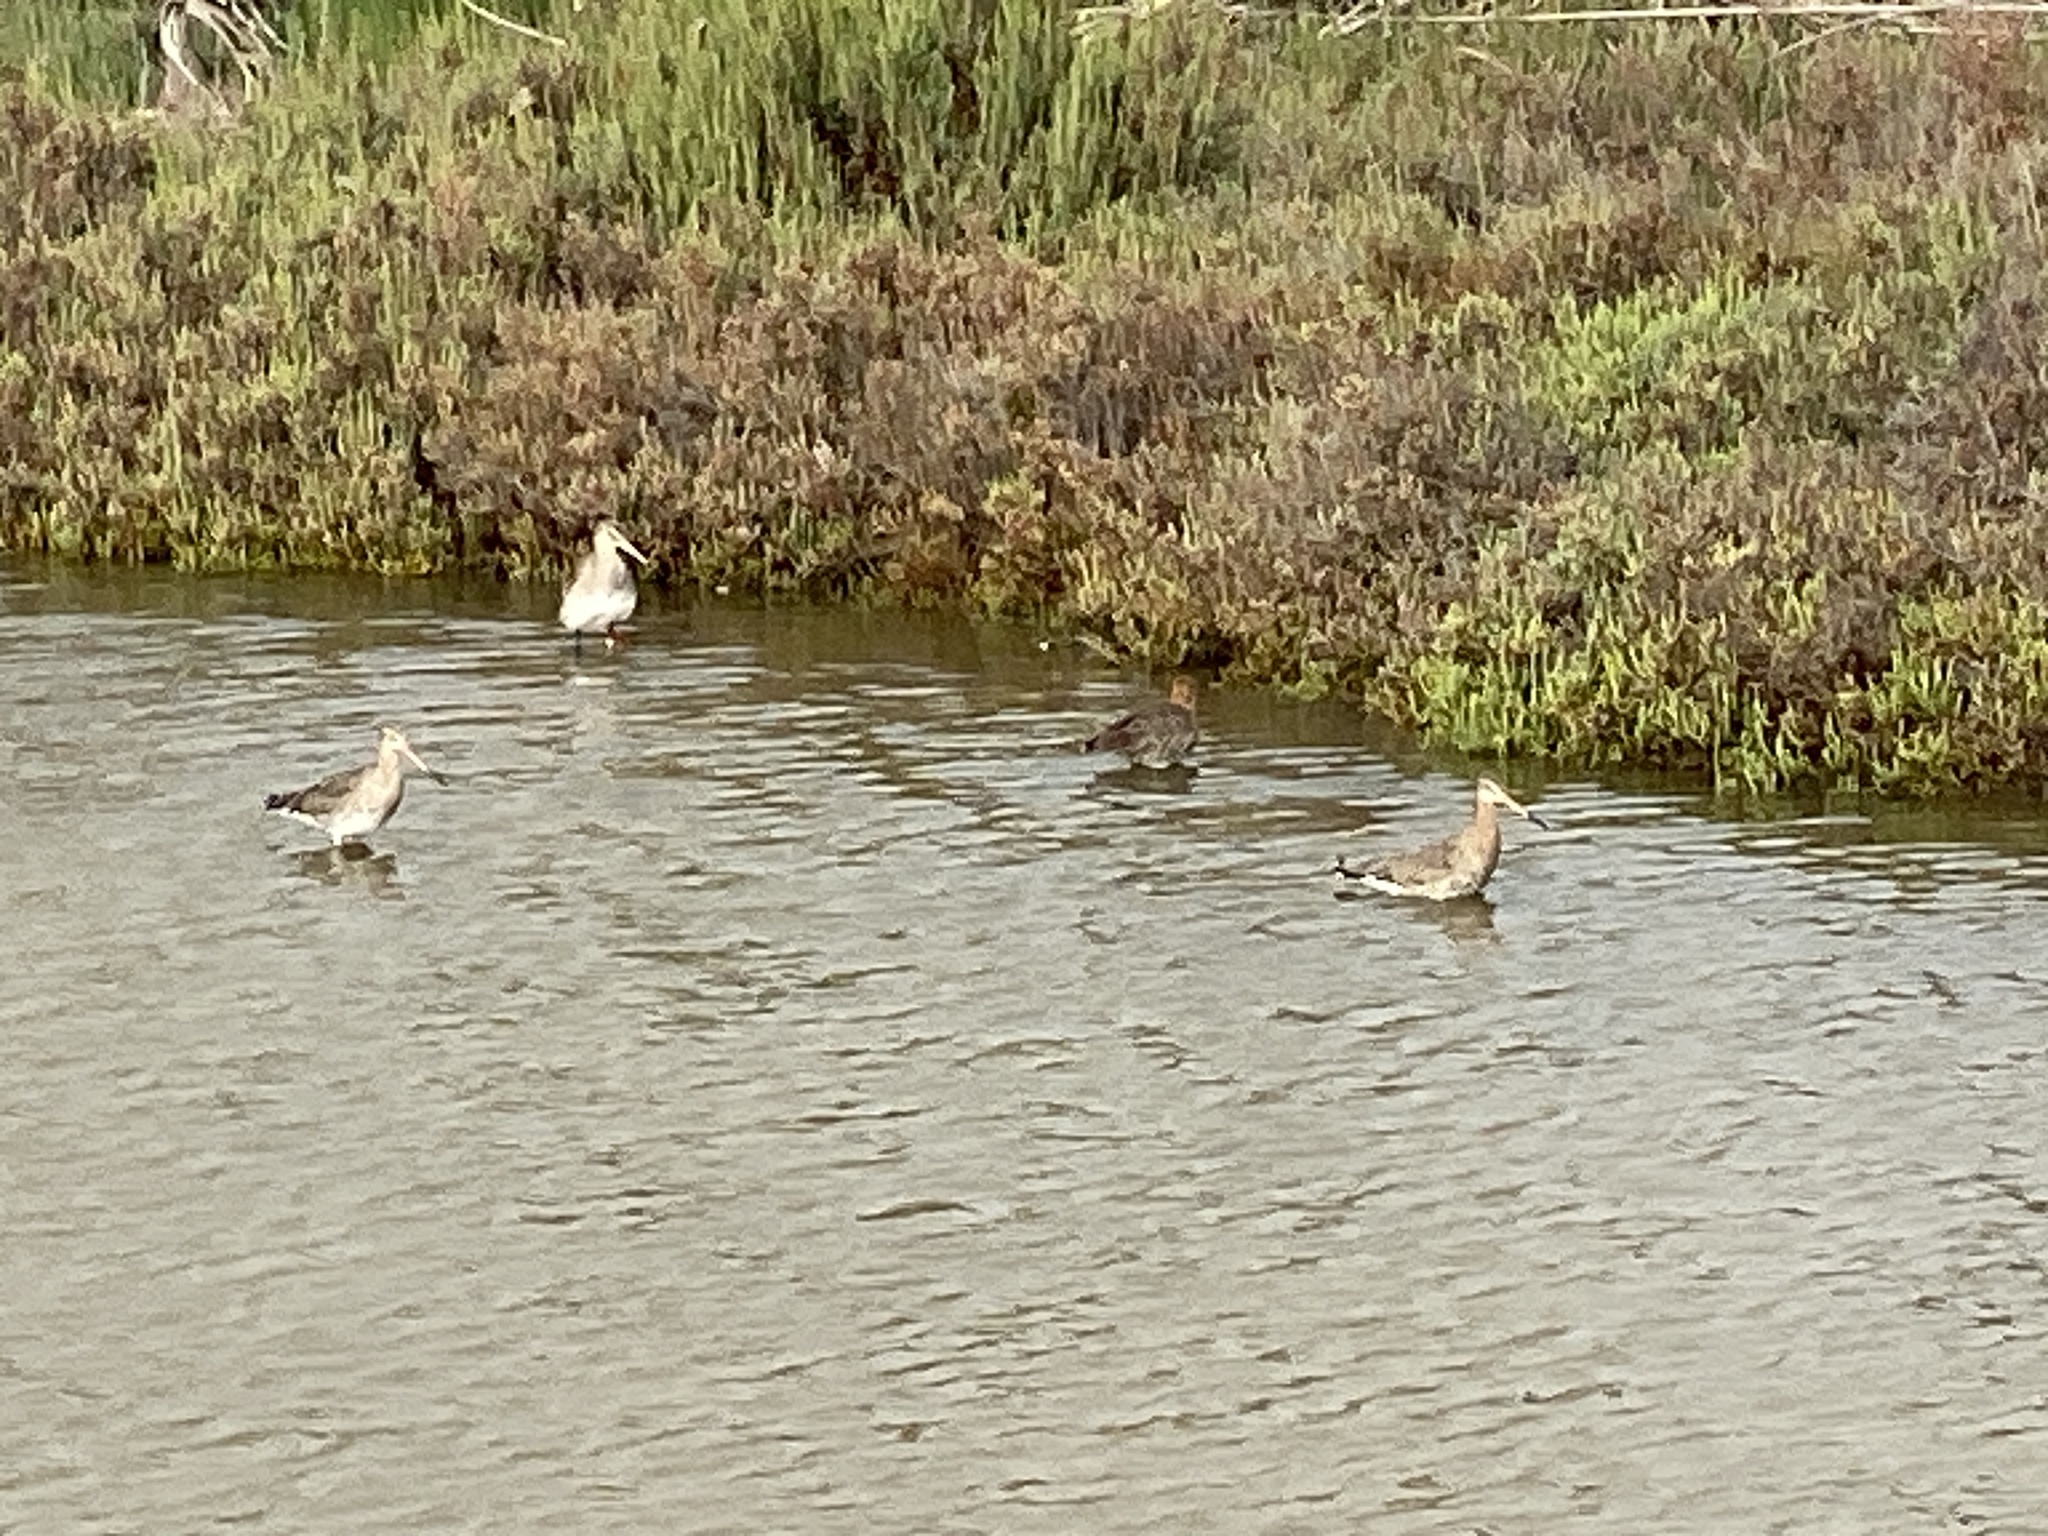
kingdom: Animalia
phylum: Chordata
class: Aves
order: Charadriiformes
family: Scolopacidae
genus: Limosa
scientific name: Limosa limosa
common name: Black-tailed godwit
